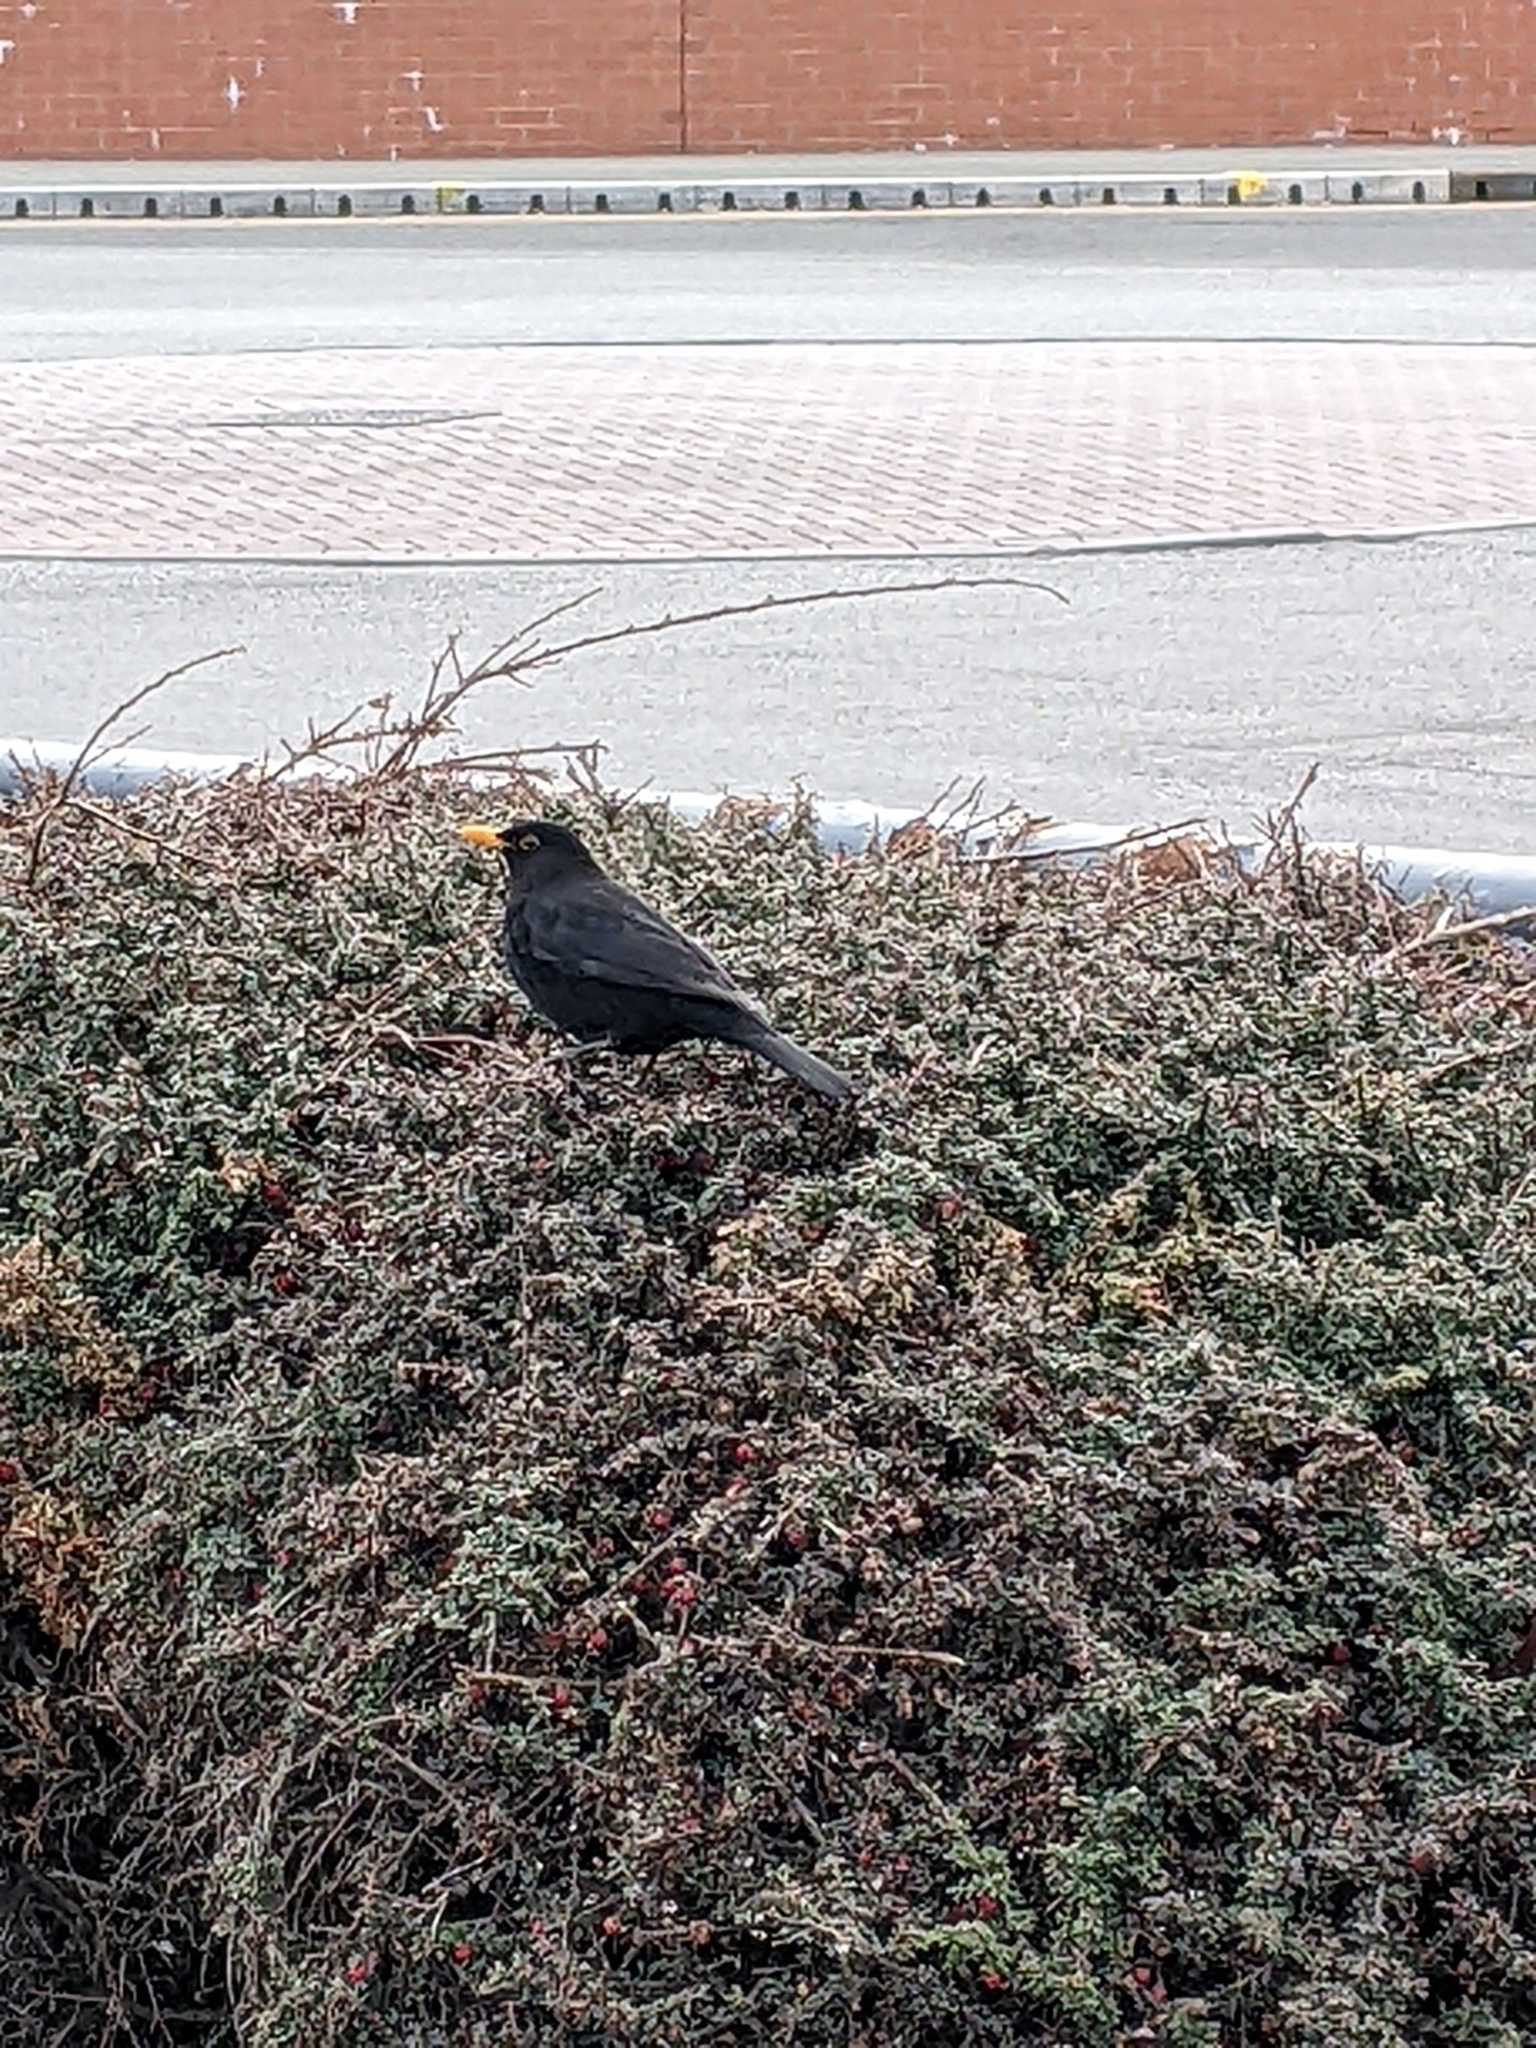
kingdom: Animalia
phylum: Chordata
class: Aves
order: Passeriformes
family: Turdidae
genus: Turdus
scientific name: Turdus merula
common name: Common blackbird
